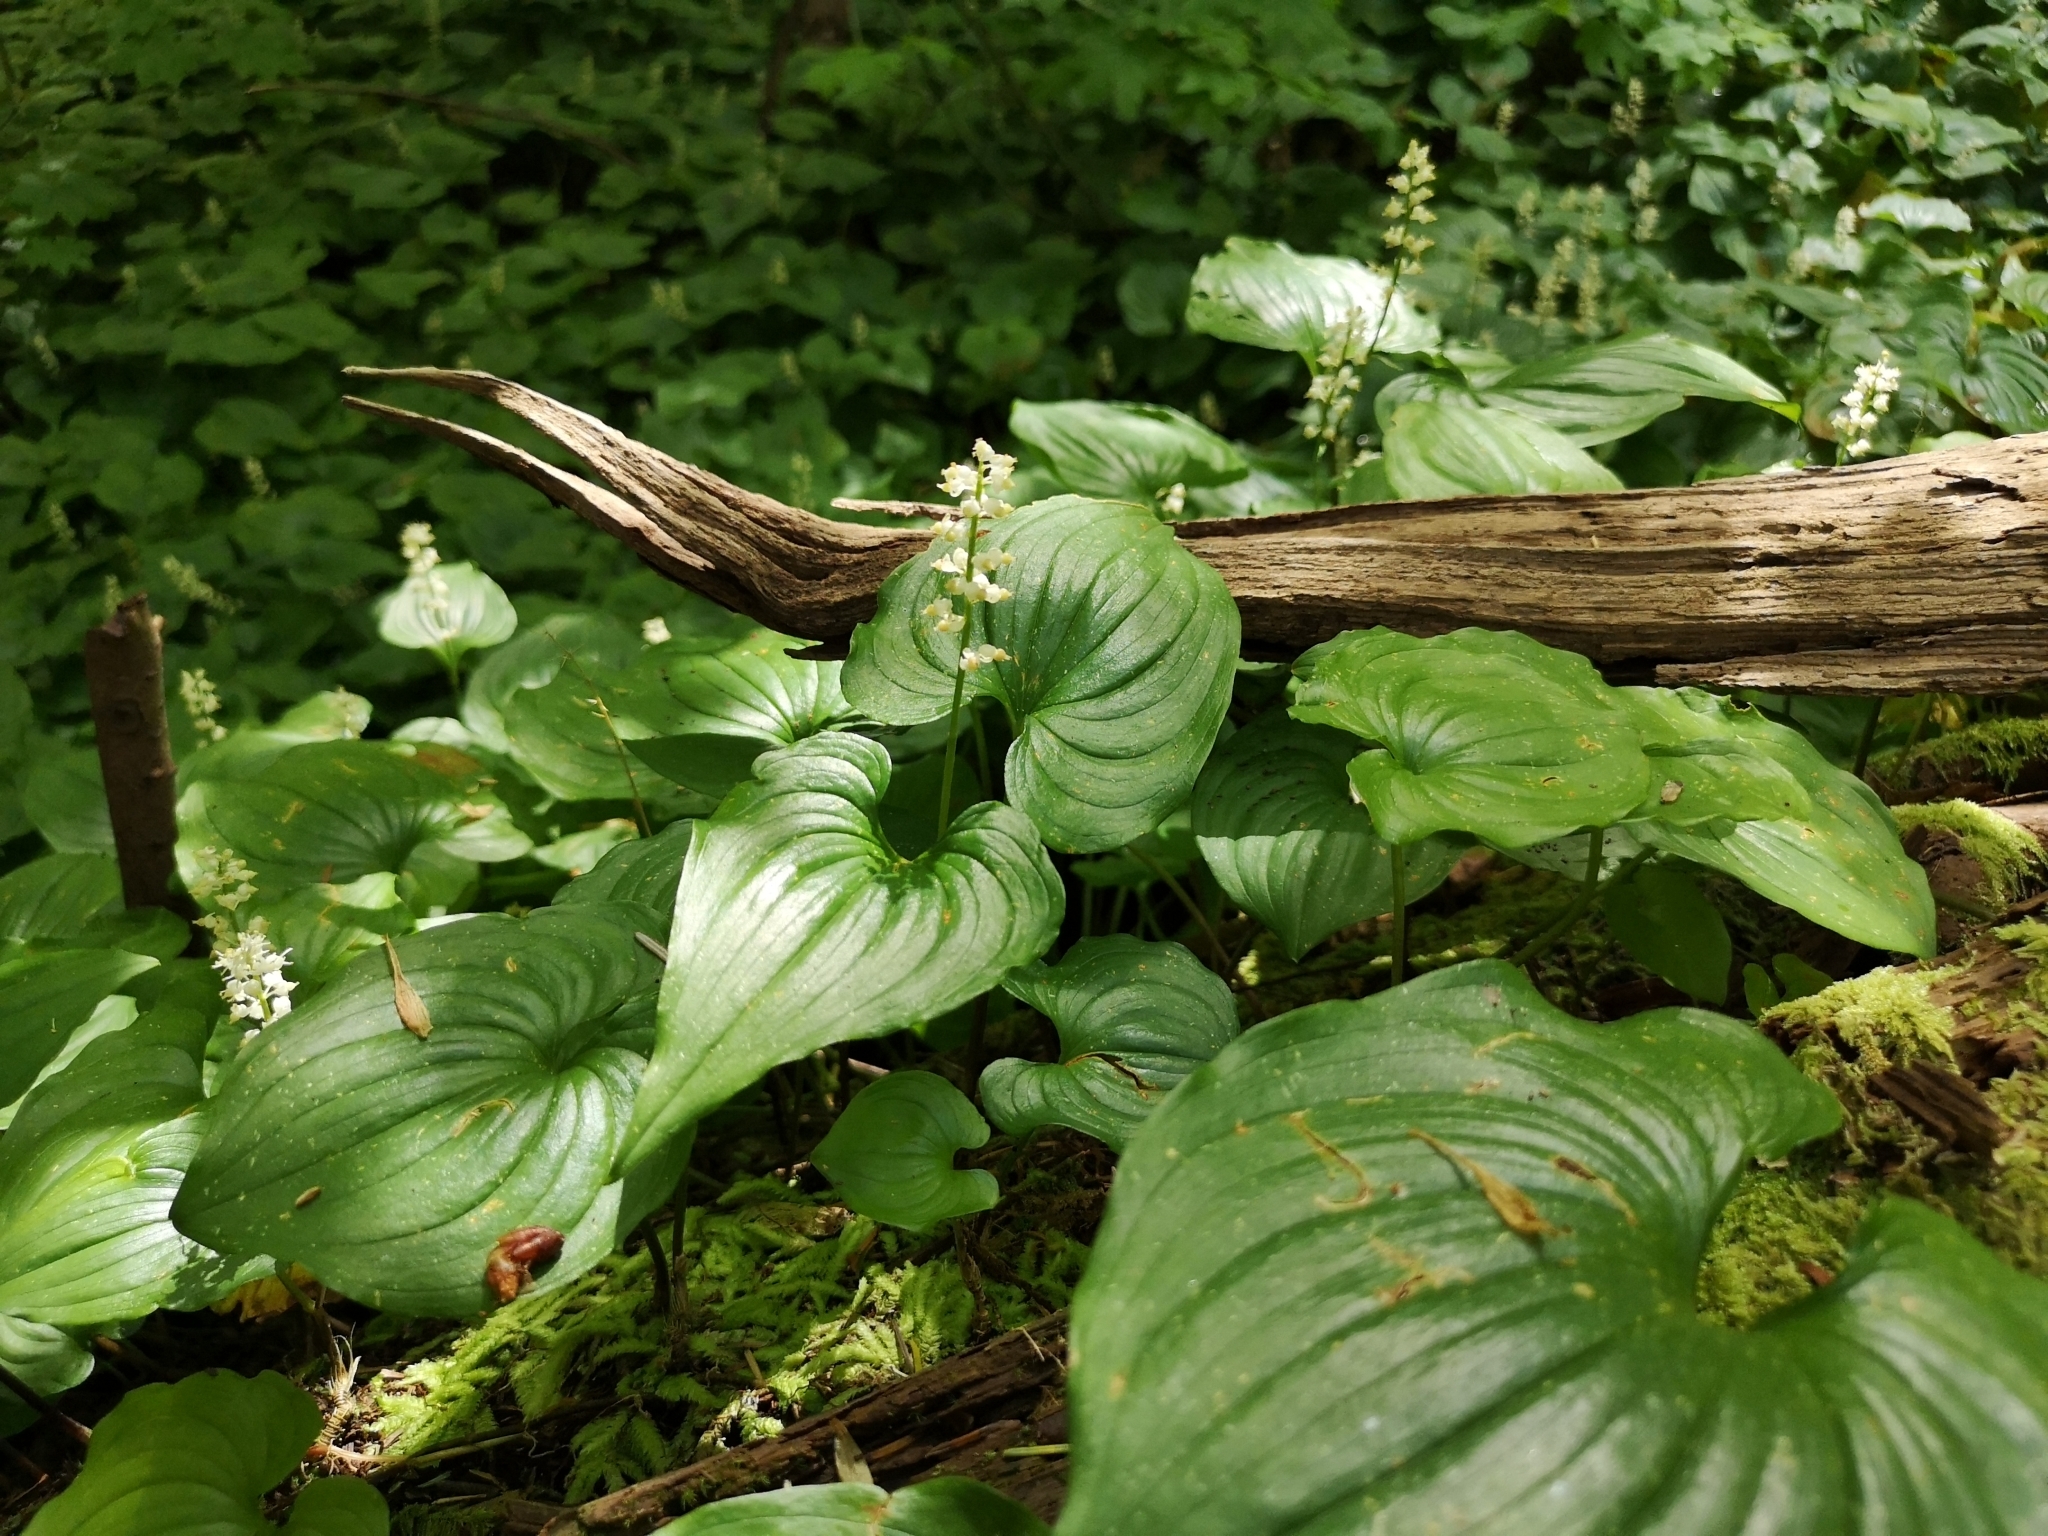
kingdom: Plantae
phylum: Tracheophyta
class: Liliopsida
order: Asparagales
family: Asparagaceae
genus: Maianthemum
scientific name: Maianthemum dilatatum
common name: False lily-of-the-valley
